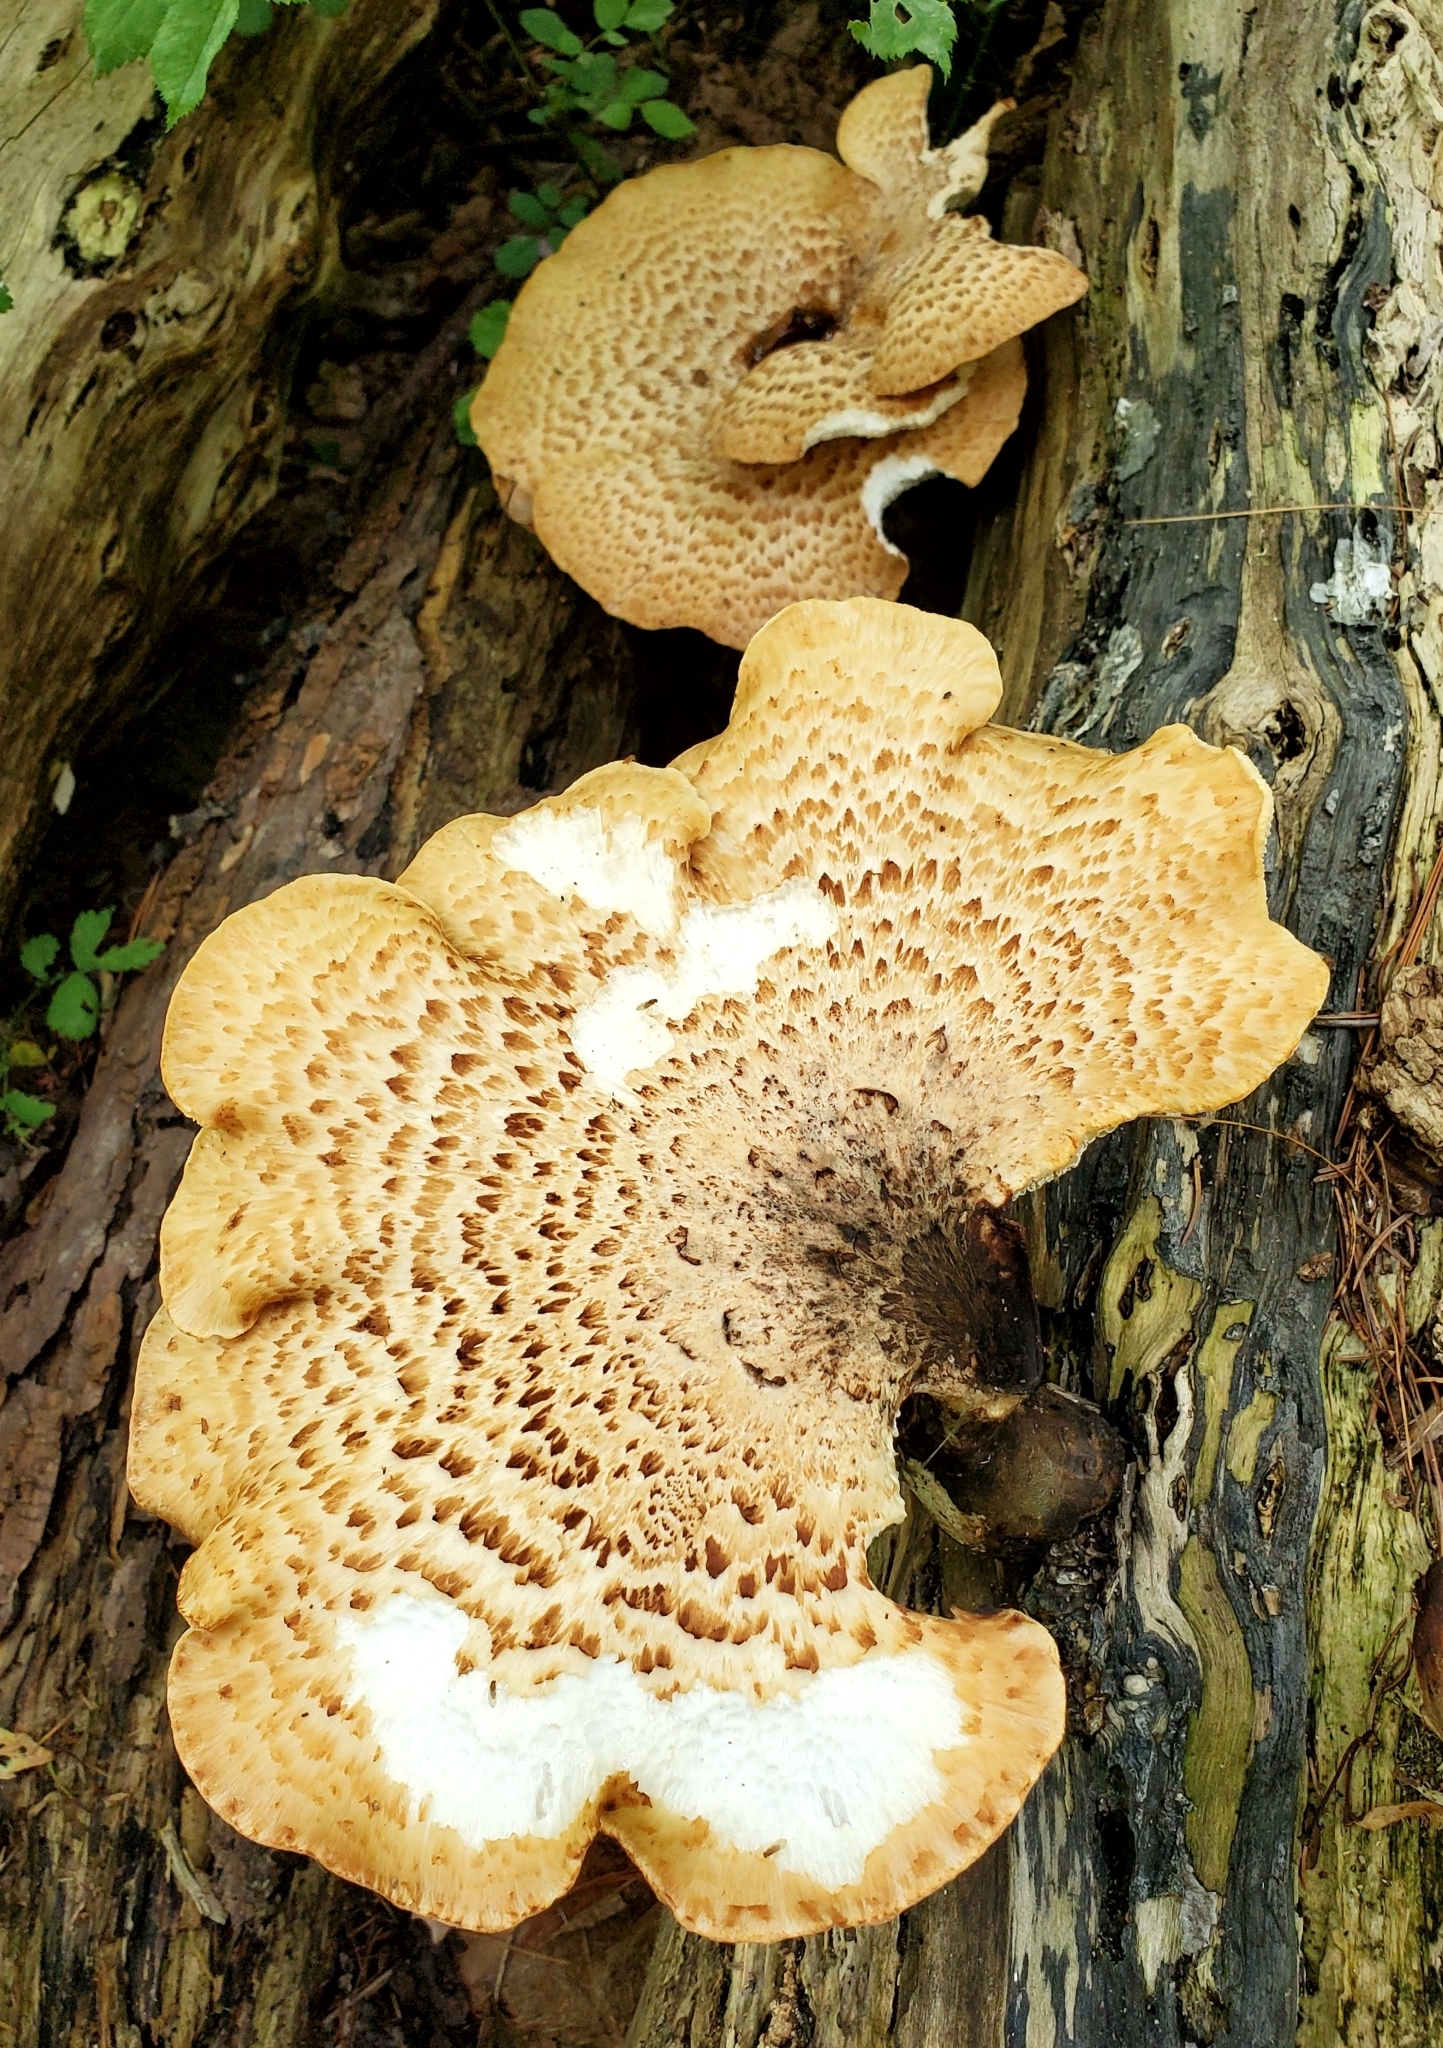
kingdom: Fungi
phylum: Basidiomycota
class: Agaricomycetes
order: Polyporales
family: Polyporaceae
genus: Cerioporus
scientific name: Cerioporus squamosus
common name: Dryad's saddle
